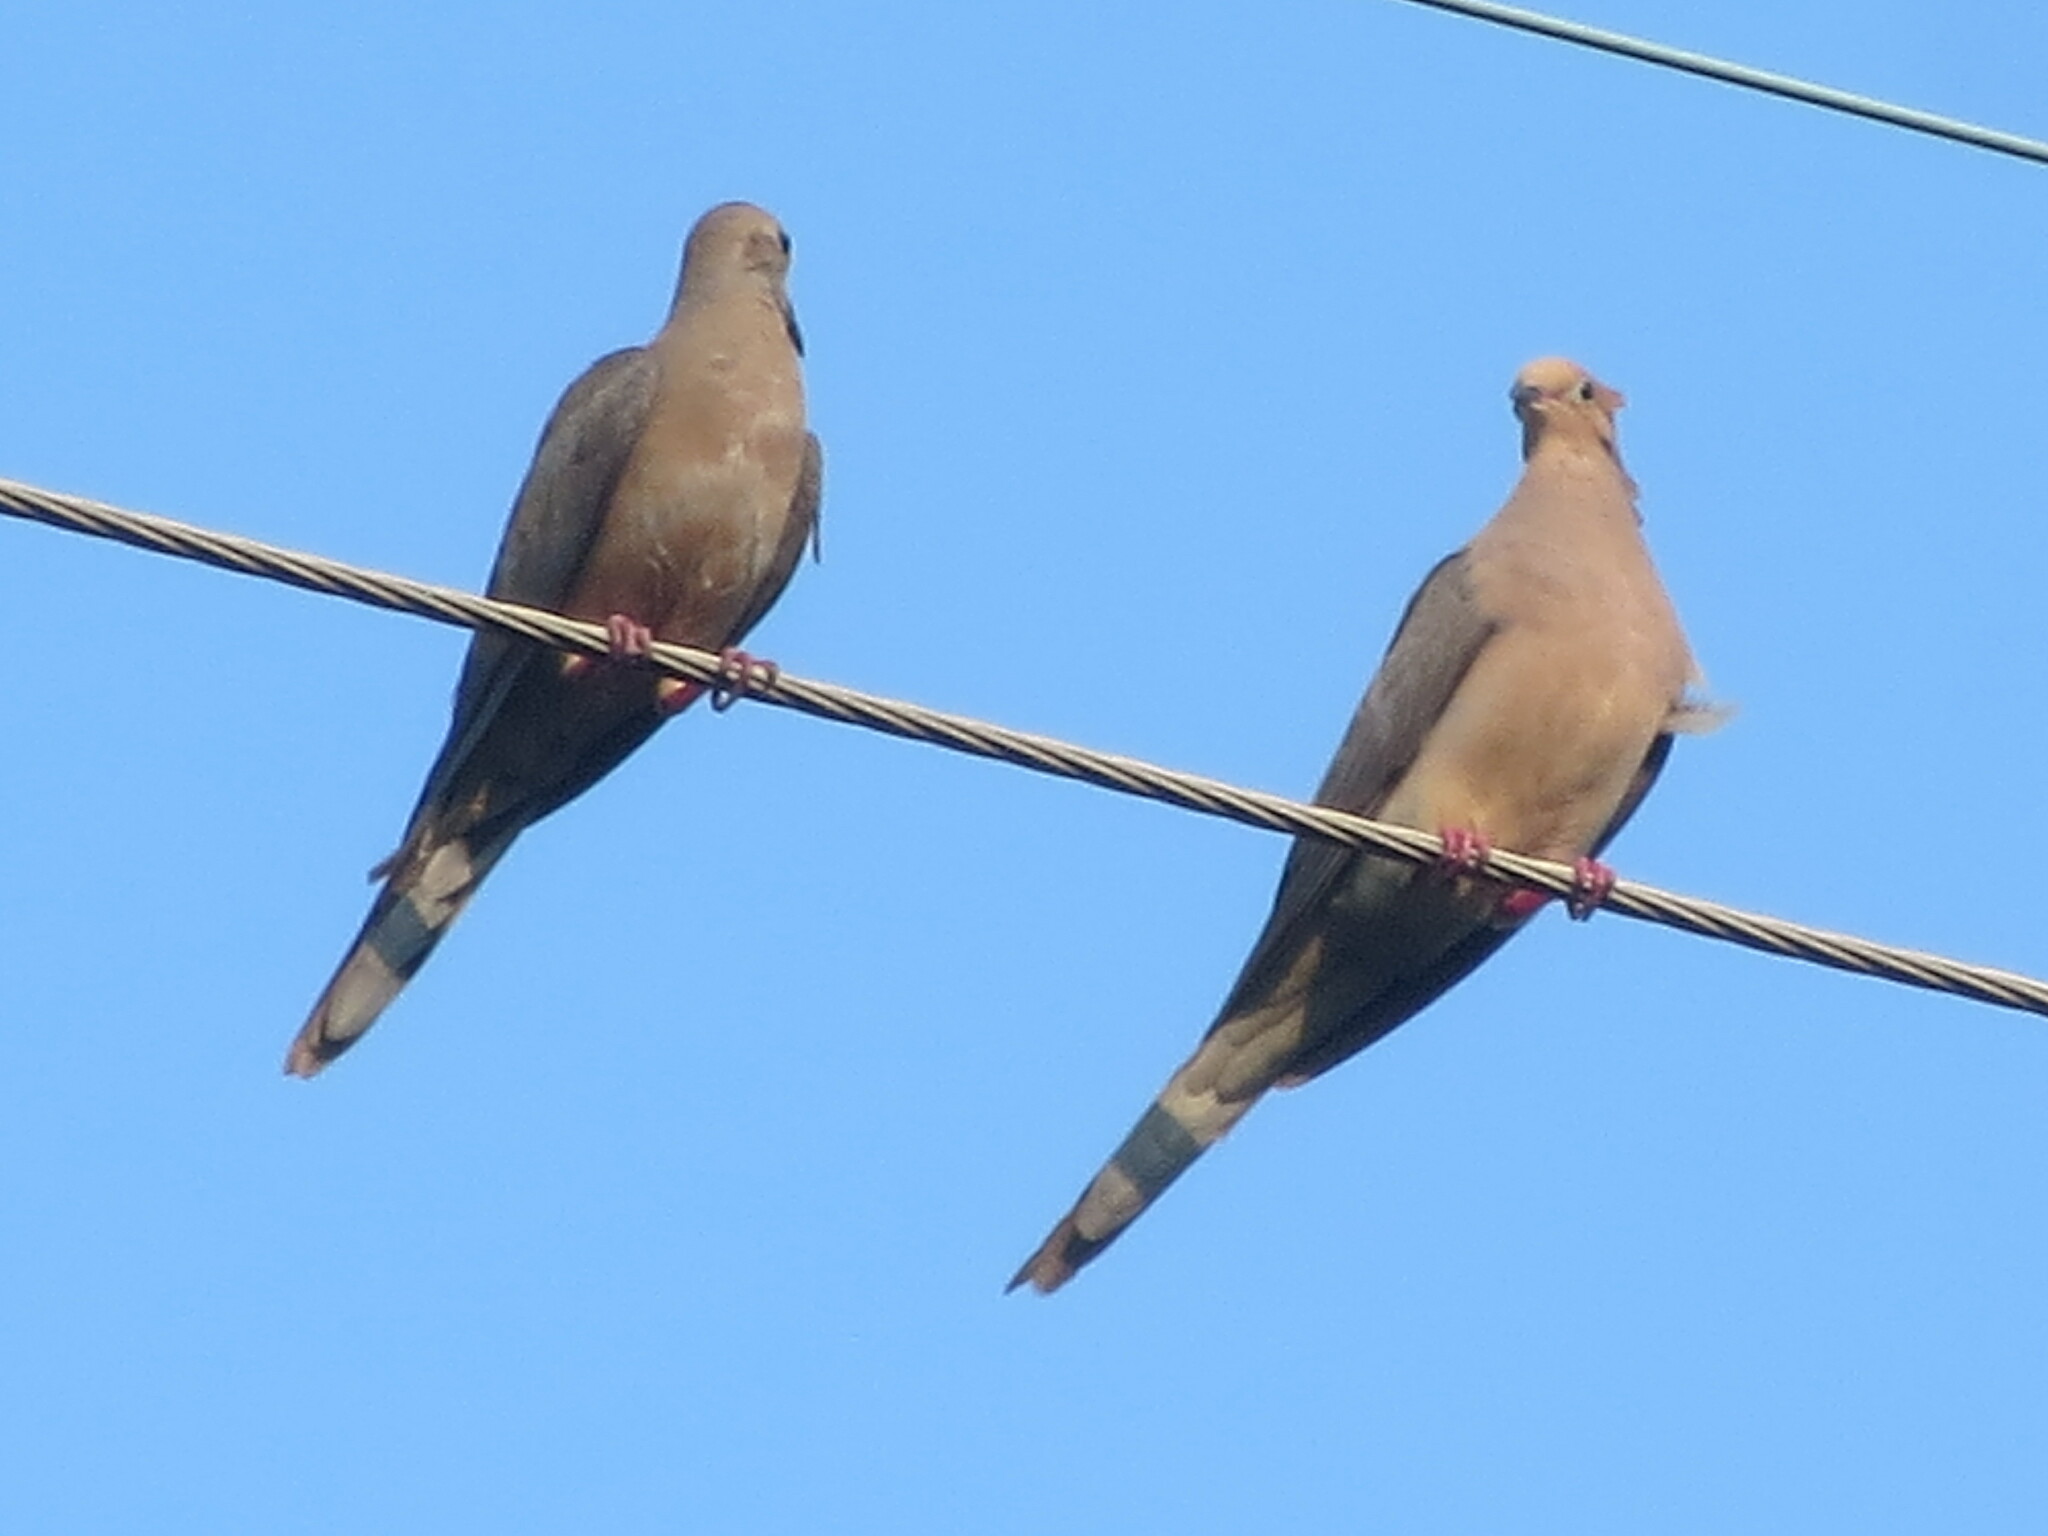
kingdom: Animalia
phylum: Chordata
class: Aves
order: Columbiformes
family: Columbidae
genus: Zenaida
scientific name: Zenaida macroura
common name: Mourning dove
